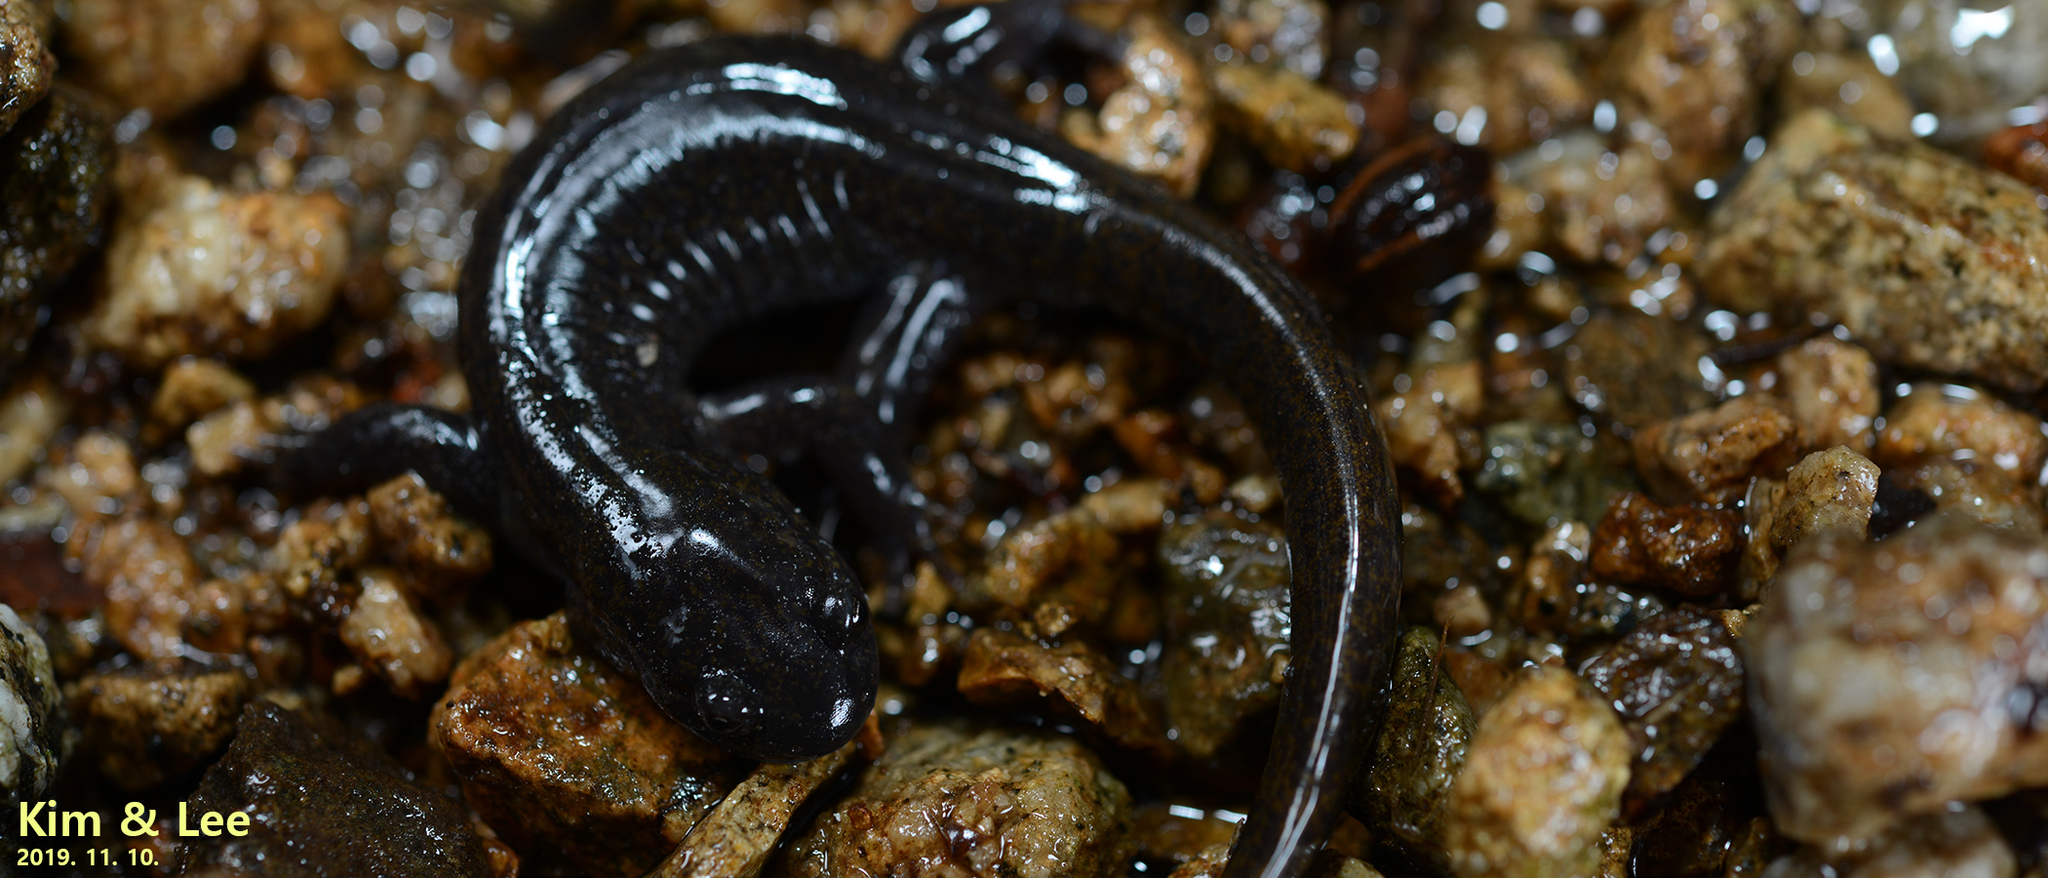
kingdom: Animalia
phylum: Chordata
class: Amphibia
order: Caudata
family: Hynobiidae
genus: Hynobius
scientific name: Hynobius leechii
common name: Gensan salamander
